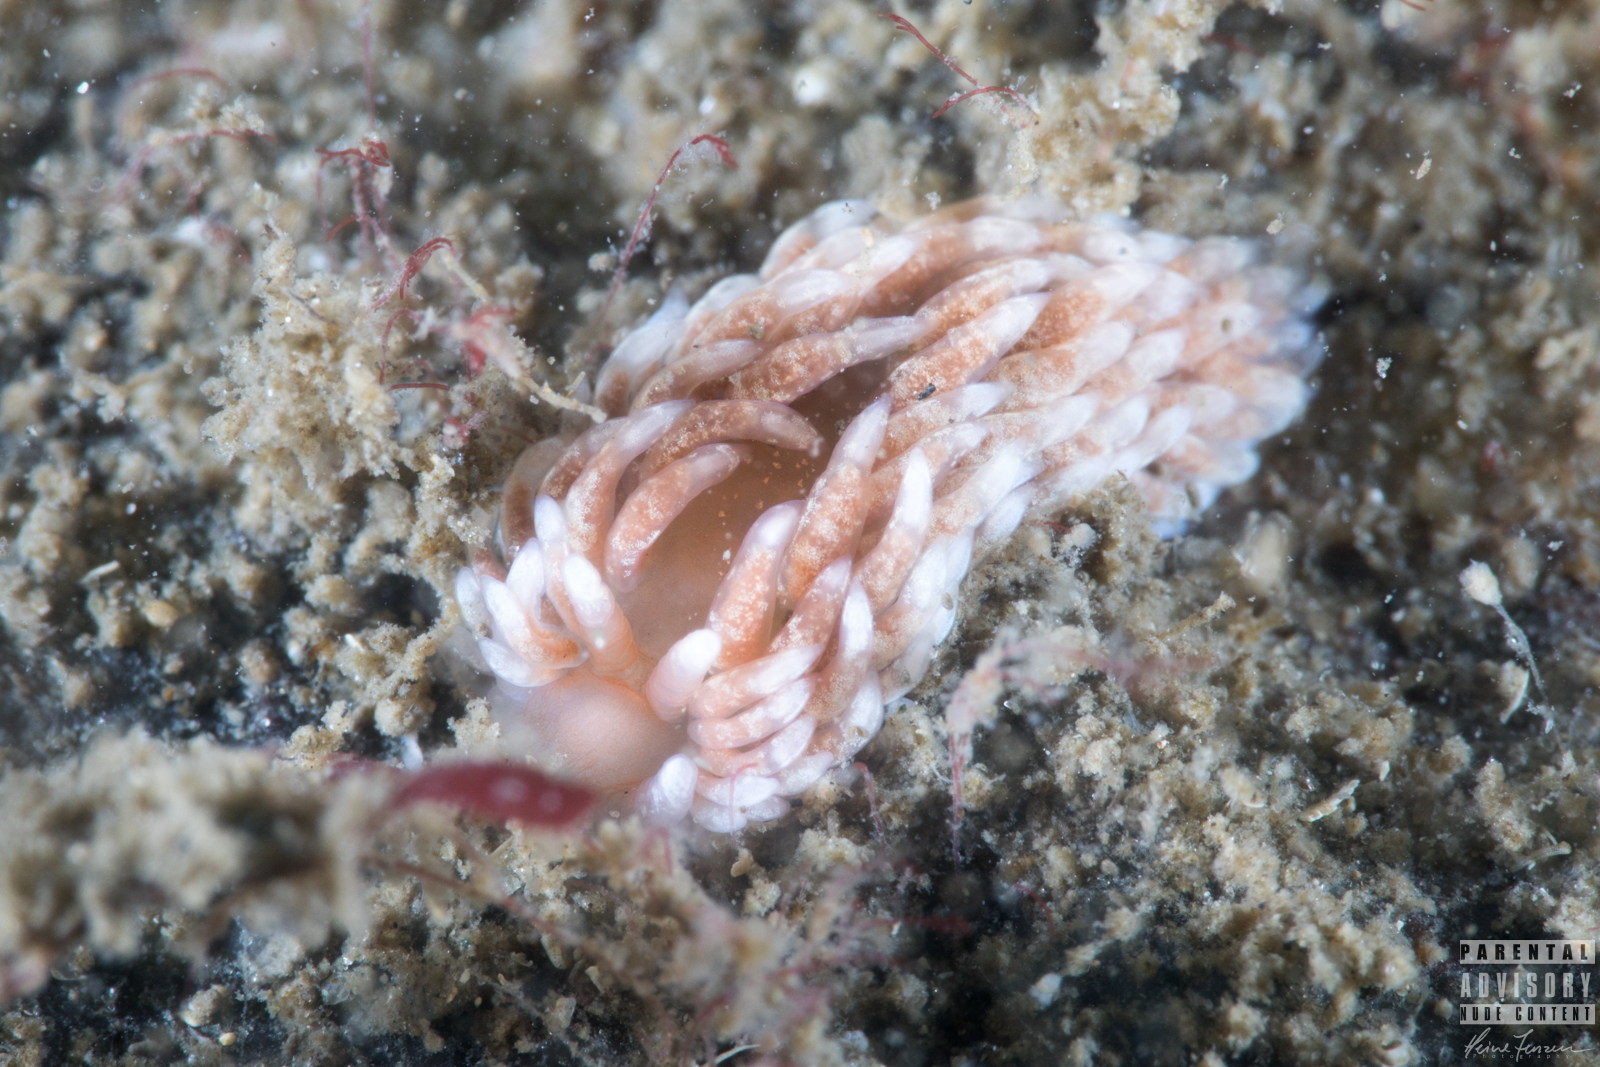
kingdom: Animalia
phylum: Mollusca
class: Gastropoda
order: Nudibranchia
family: Aeolidiidae
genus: Aeolidiella
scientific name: Aeolidiella glauca
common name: Orange-brown aeolid
